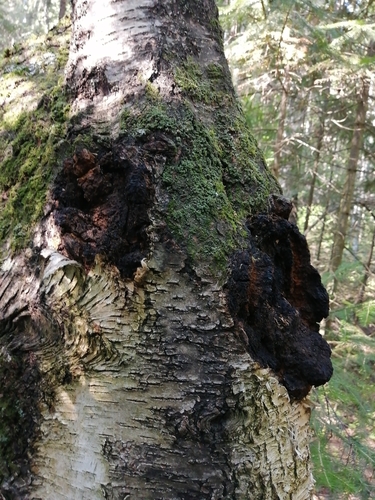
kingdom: Fungi
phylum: Basidiomycota
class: Agaricomycetes
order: Hymenochaetales
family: Hymenochaetaceae
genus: Inonotus
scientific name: Inonotus obliquus
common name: Chaga
